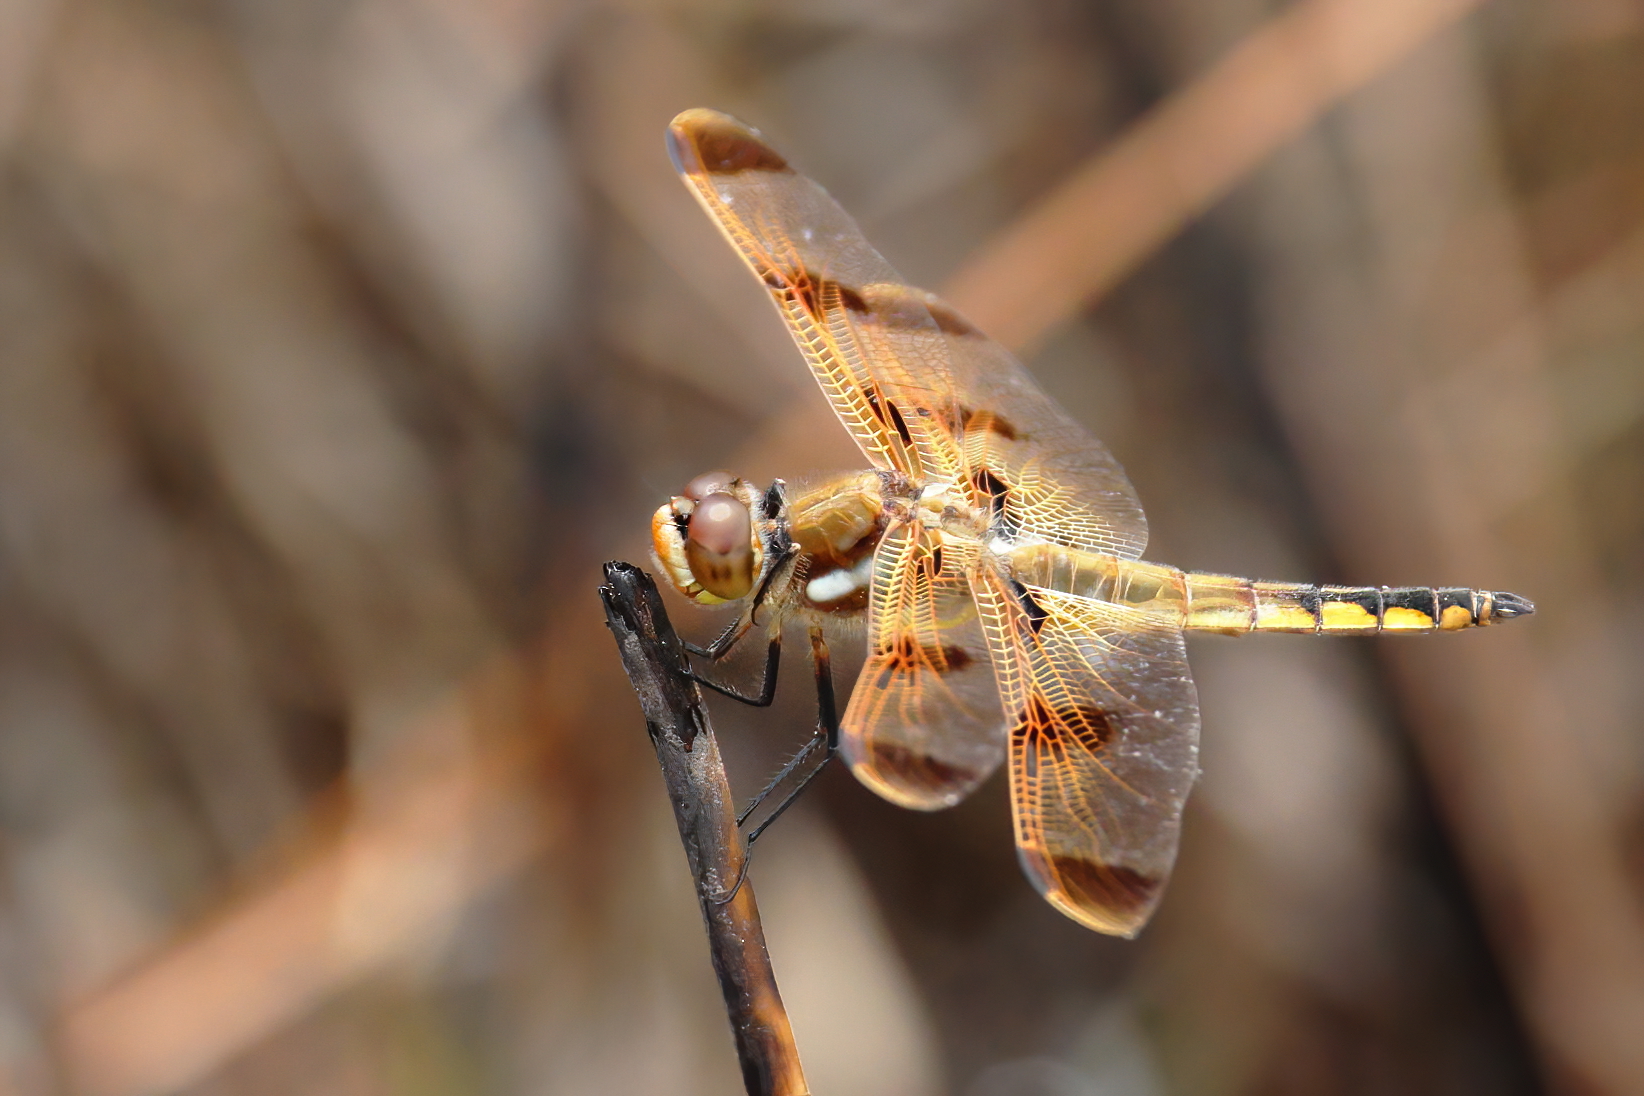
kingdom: Animalia
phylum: Arthropoda
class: Insecta
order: Odonata
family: Libellulidae
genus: Libellula
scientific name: Libellula semifasciata
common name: Painted skimmer
